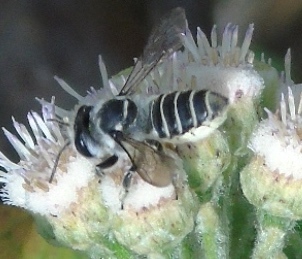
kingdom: Animalia
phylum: Arthropoda
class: Insecta
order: Hymenoptera
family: Megachilidae
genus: Megachile
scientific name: Megachile
